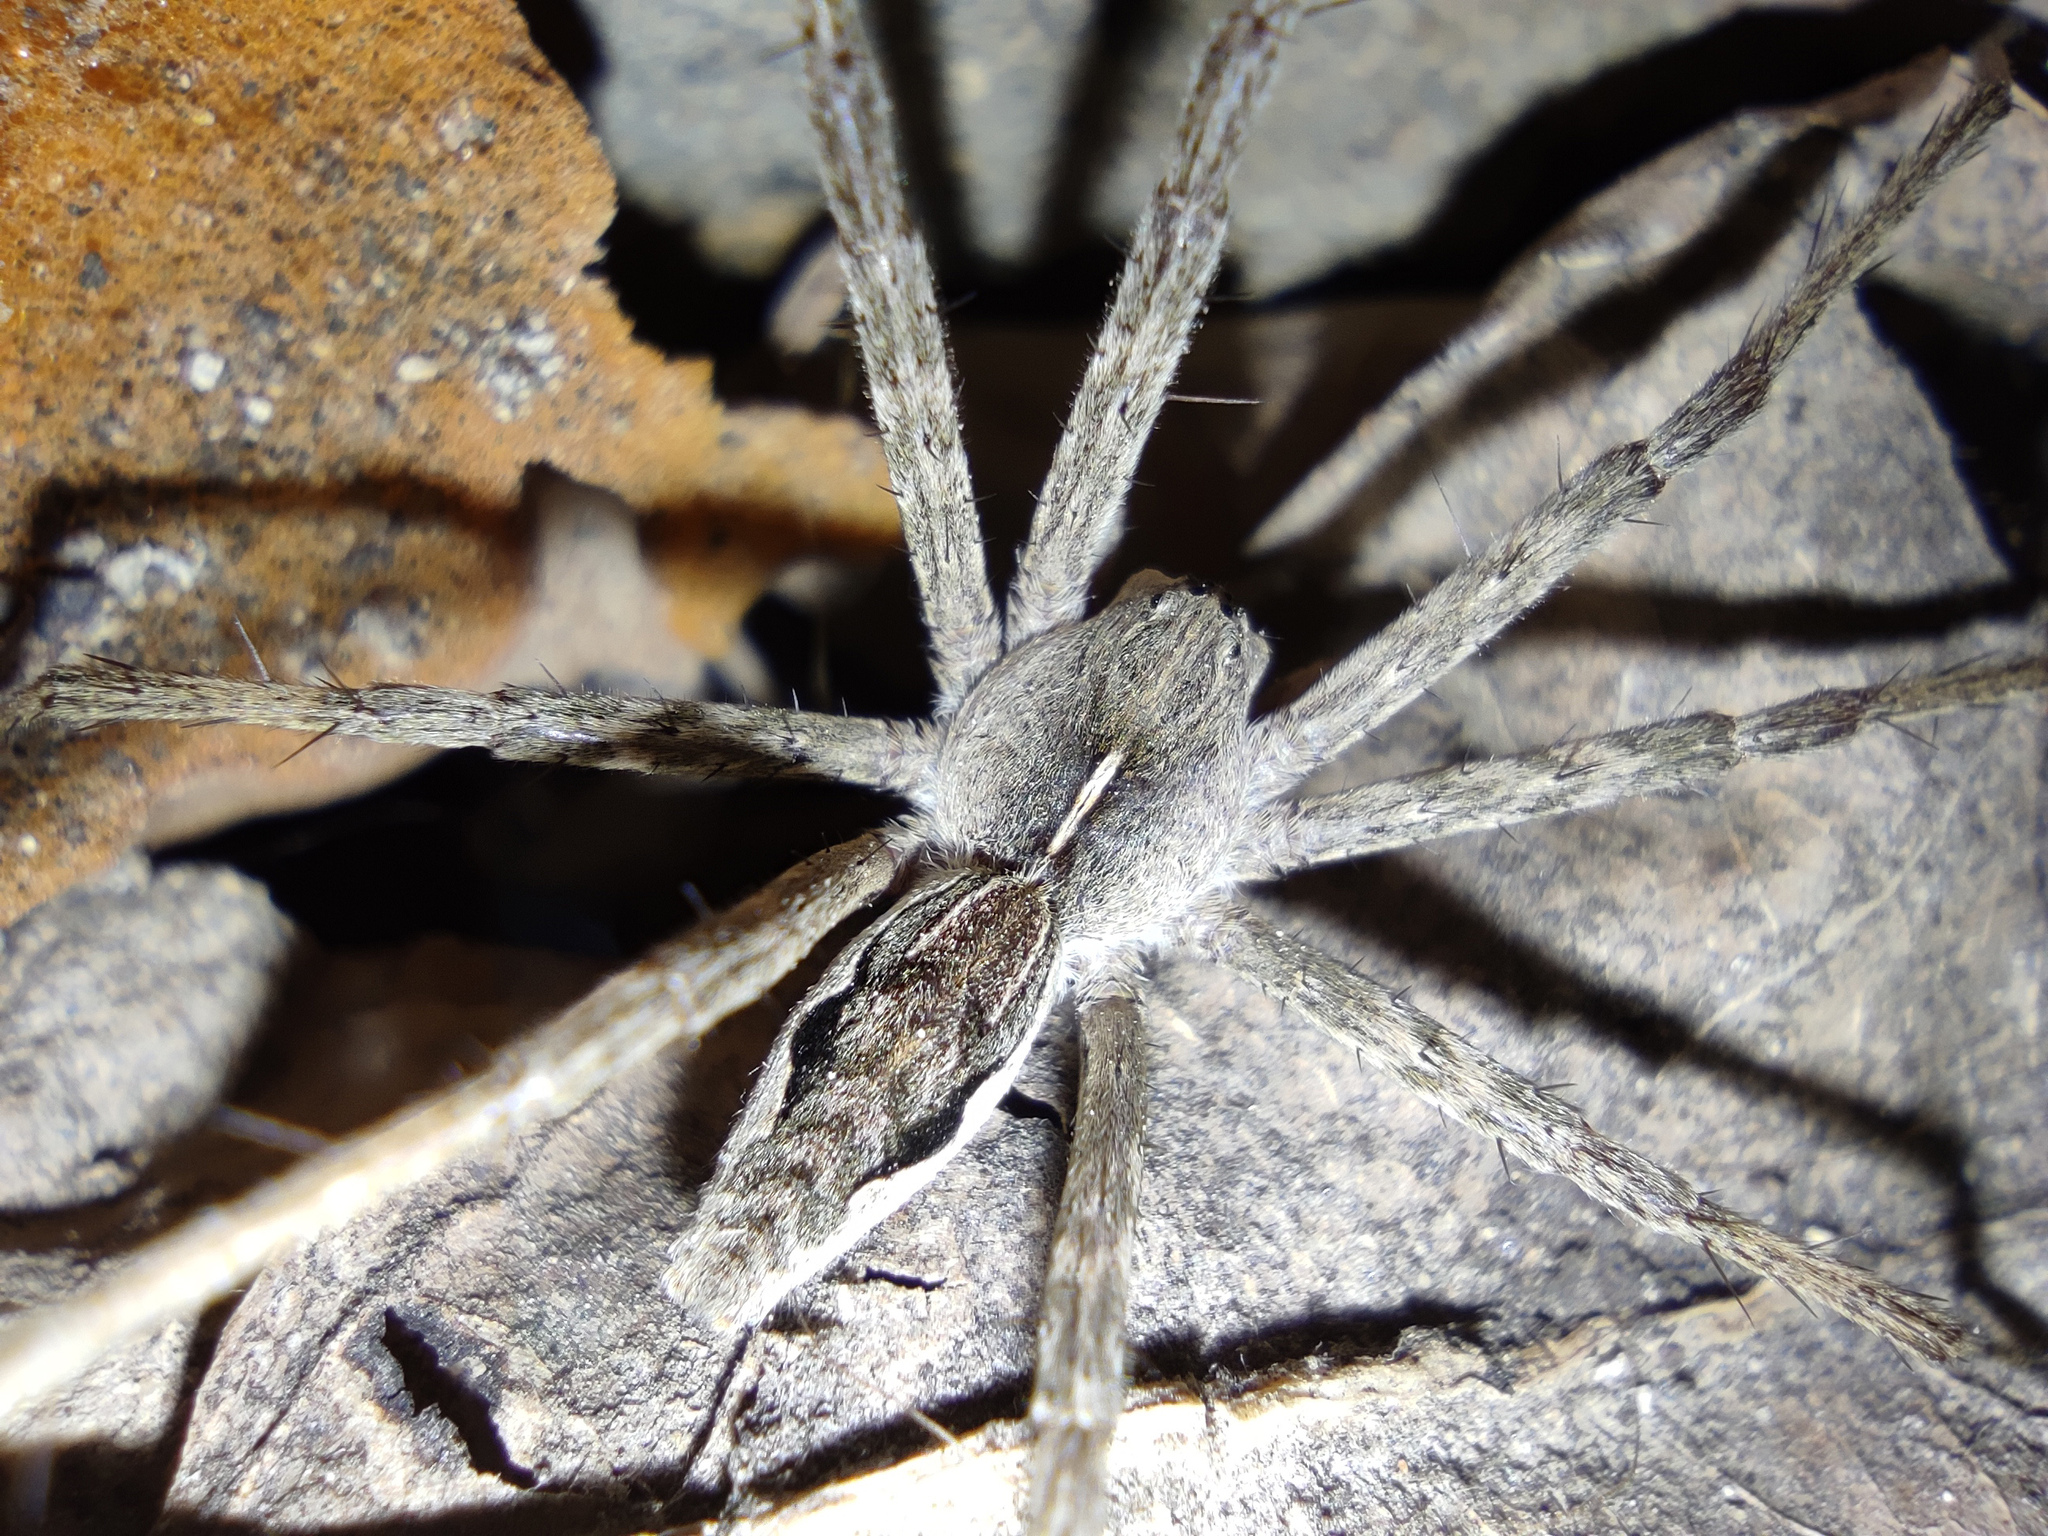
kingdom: Animalia
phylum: Arthropoda
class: Arachnida
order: Araneae
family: Pisauridae
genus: Pisaura
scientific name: Pisaura
